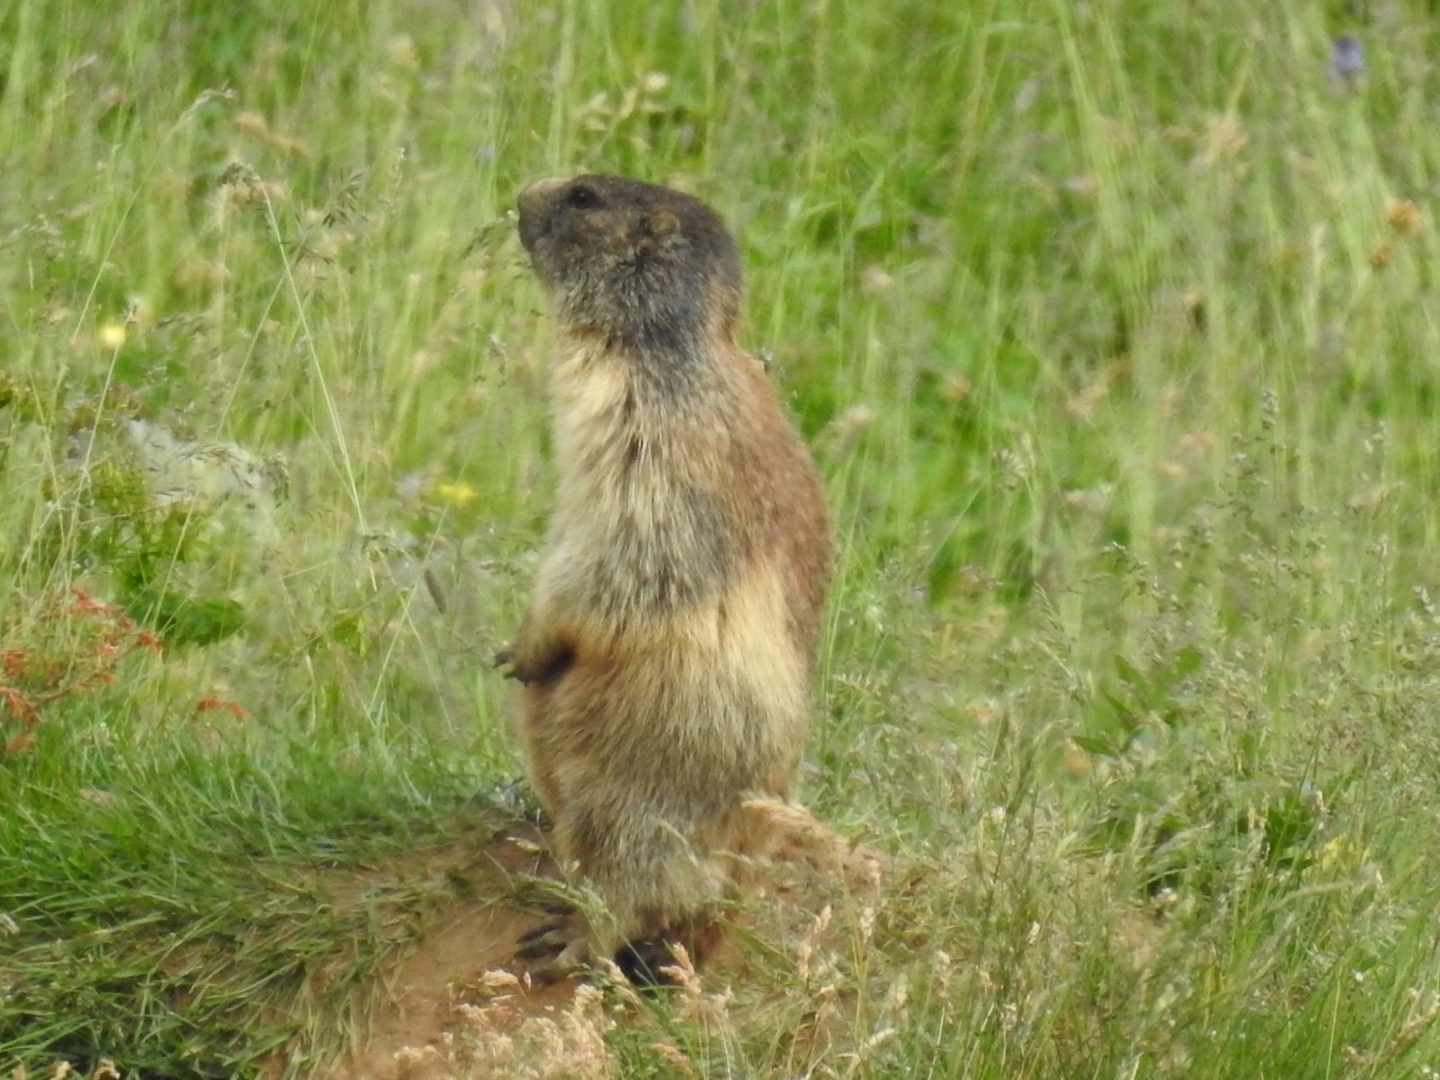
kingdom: Animalia
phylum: Chordata
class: Mammalia
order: Rodentia
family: Sciuridae
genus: Marmota
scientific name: Marmota marmota
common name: Alpine marmot
